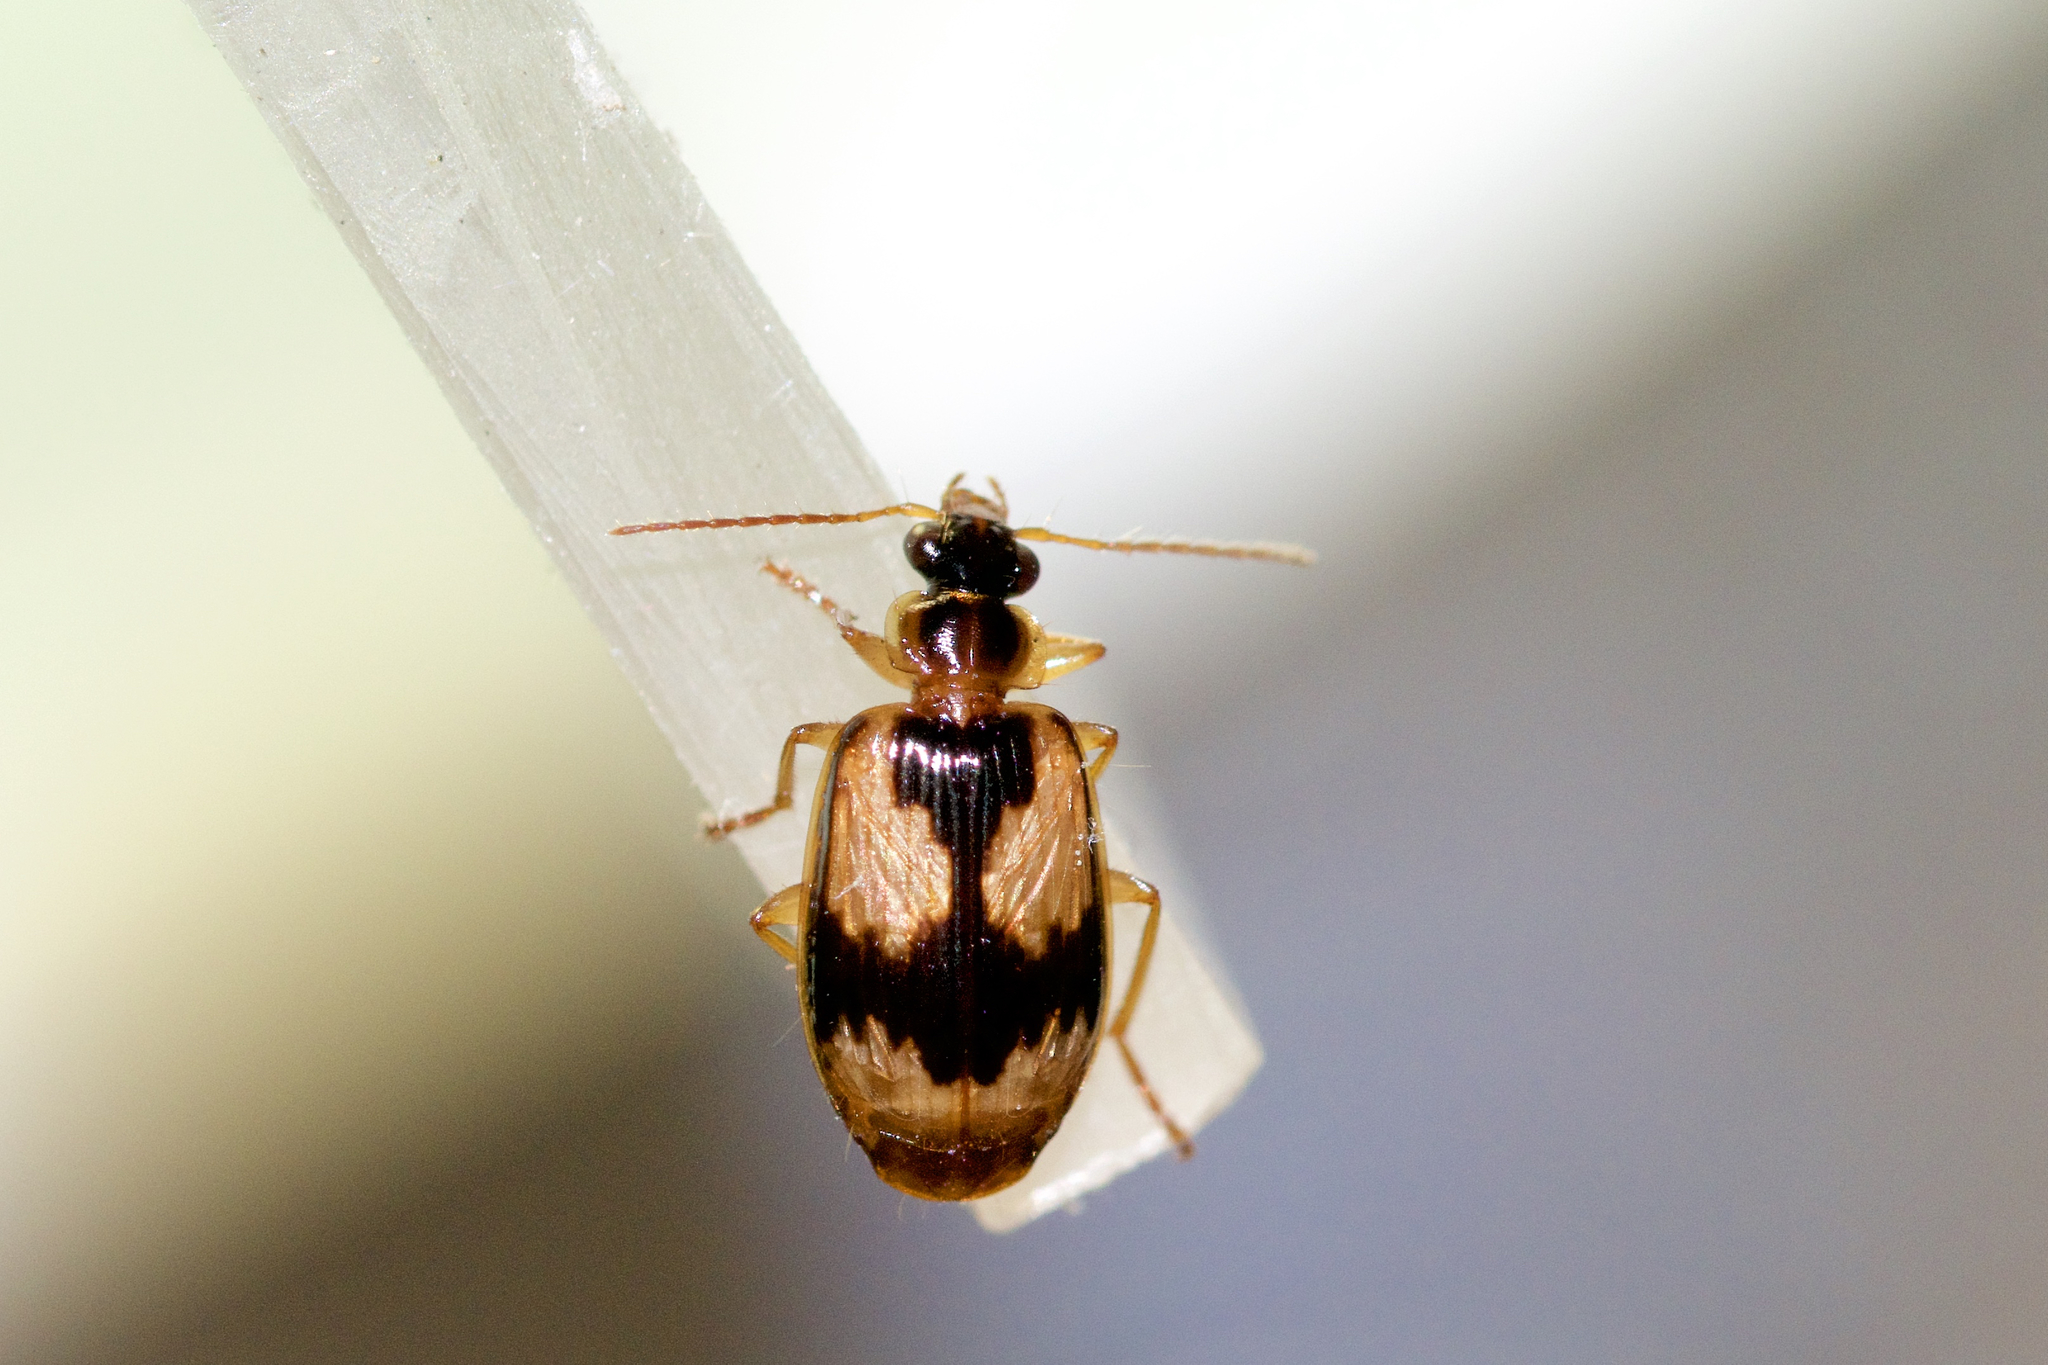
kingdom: Animalia
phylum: Arthropoda
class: Insecta
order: Coleoptera
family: Carabidae
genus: Lebia
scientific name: Lebia fuscata
